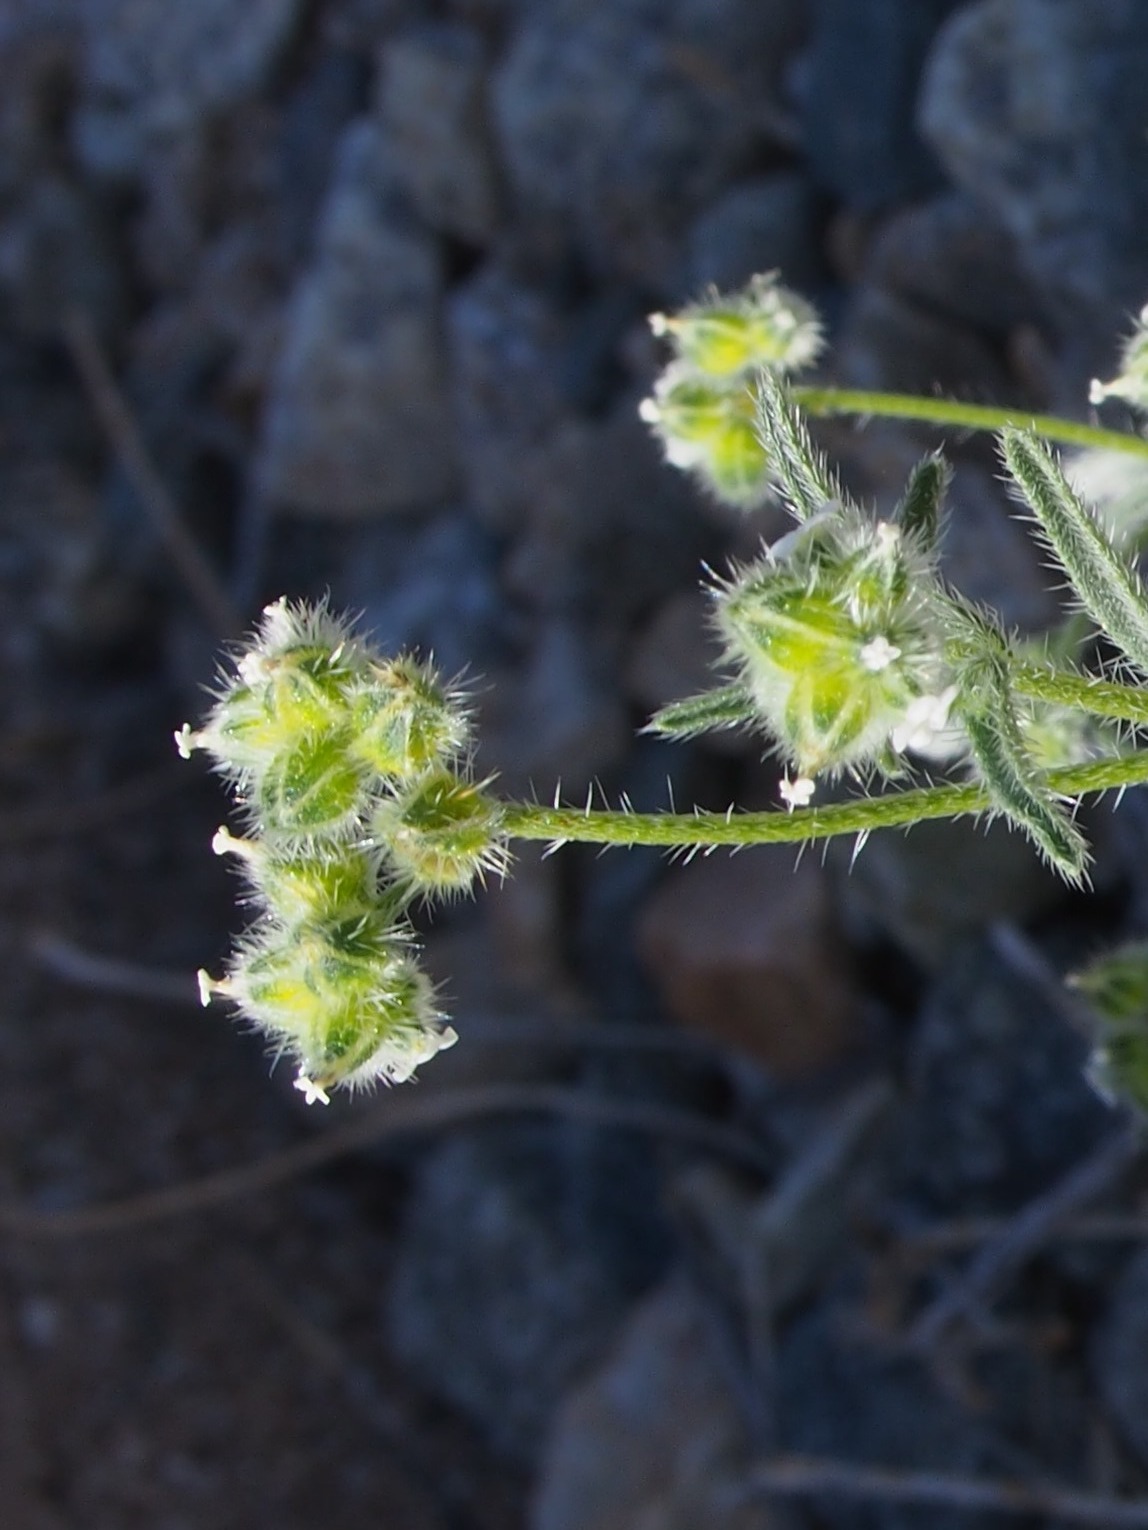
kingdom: Plantae
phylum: Tracheophyta
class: Magnoliopsida
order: Boraginales
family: Boraginaceae
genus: Cryptantha
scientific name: Cryptantha pterocarya
